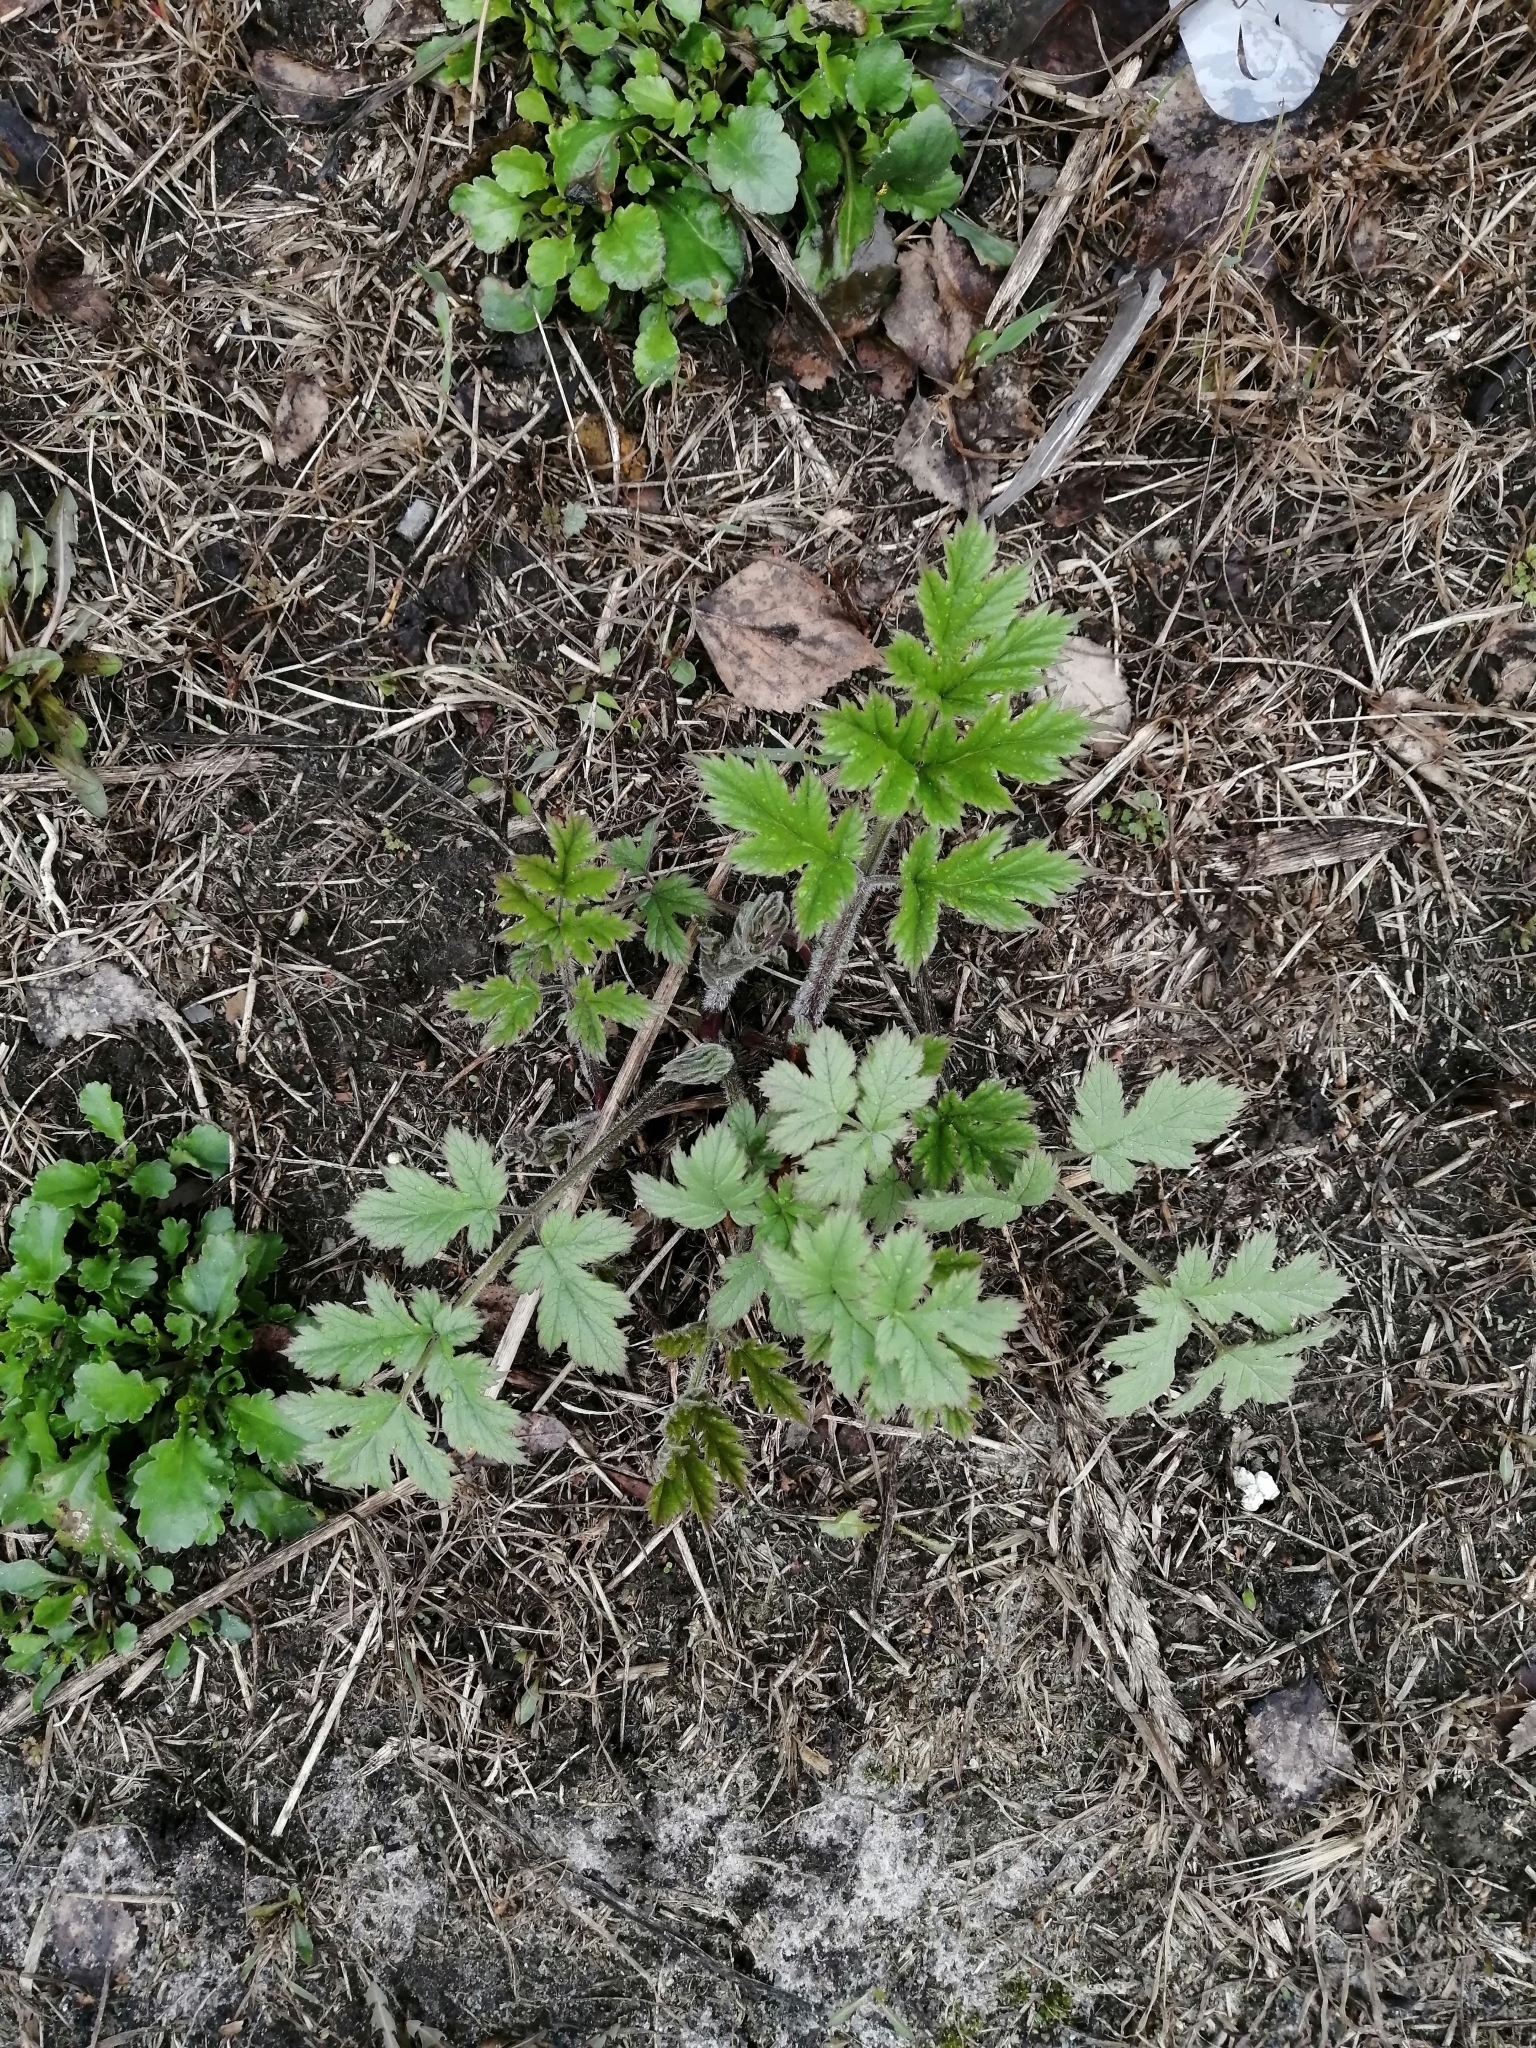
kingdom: Plantae
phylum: Tracheophyta
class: Magnoliopsida
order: Apiales
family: Apiaceae
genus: Heracleum
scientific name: Heracleum sphondylium
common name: Hogweed
